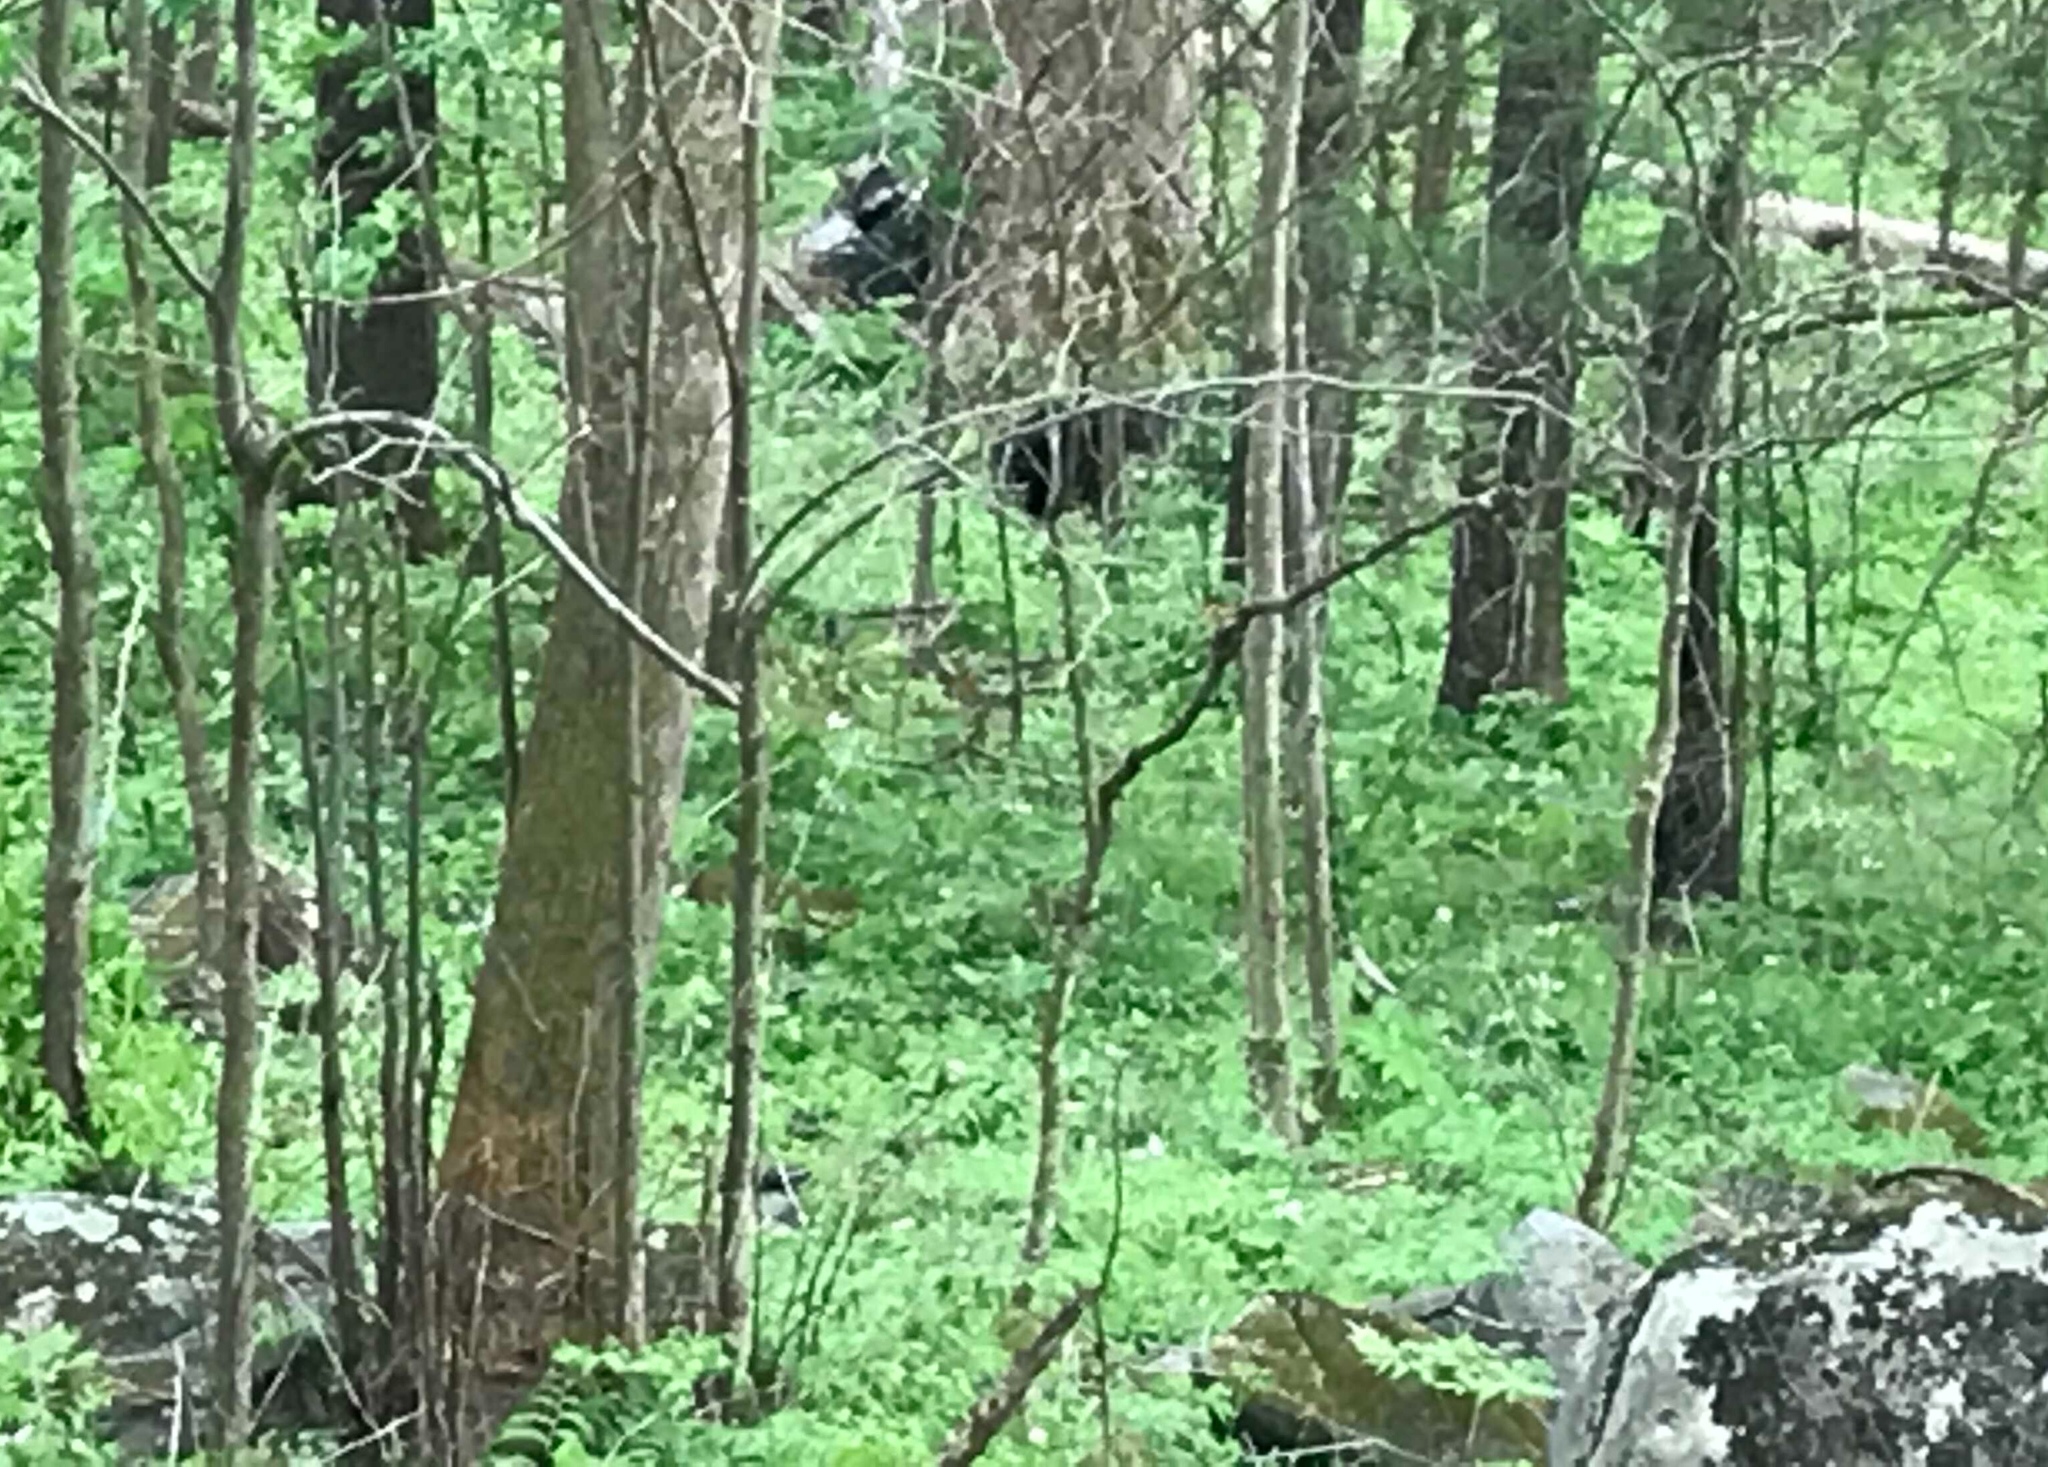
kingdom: Animalia
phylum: Chordata
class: Mammalia
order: Carnivora
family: Ursidae
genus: Ursus
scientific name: Ursus americanus
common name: American black bear
